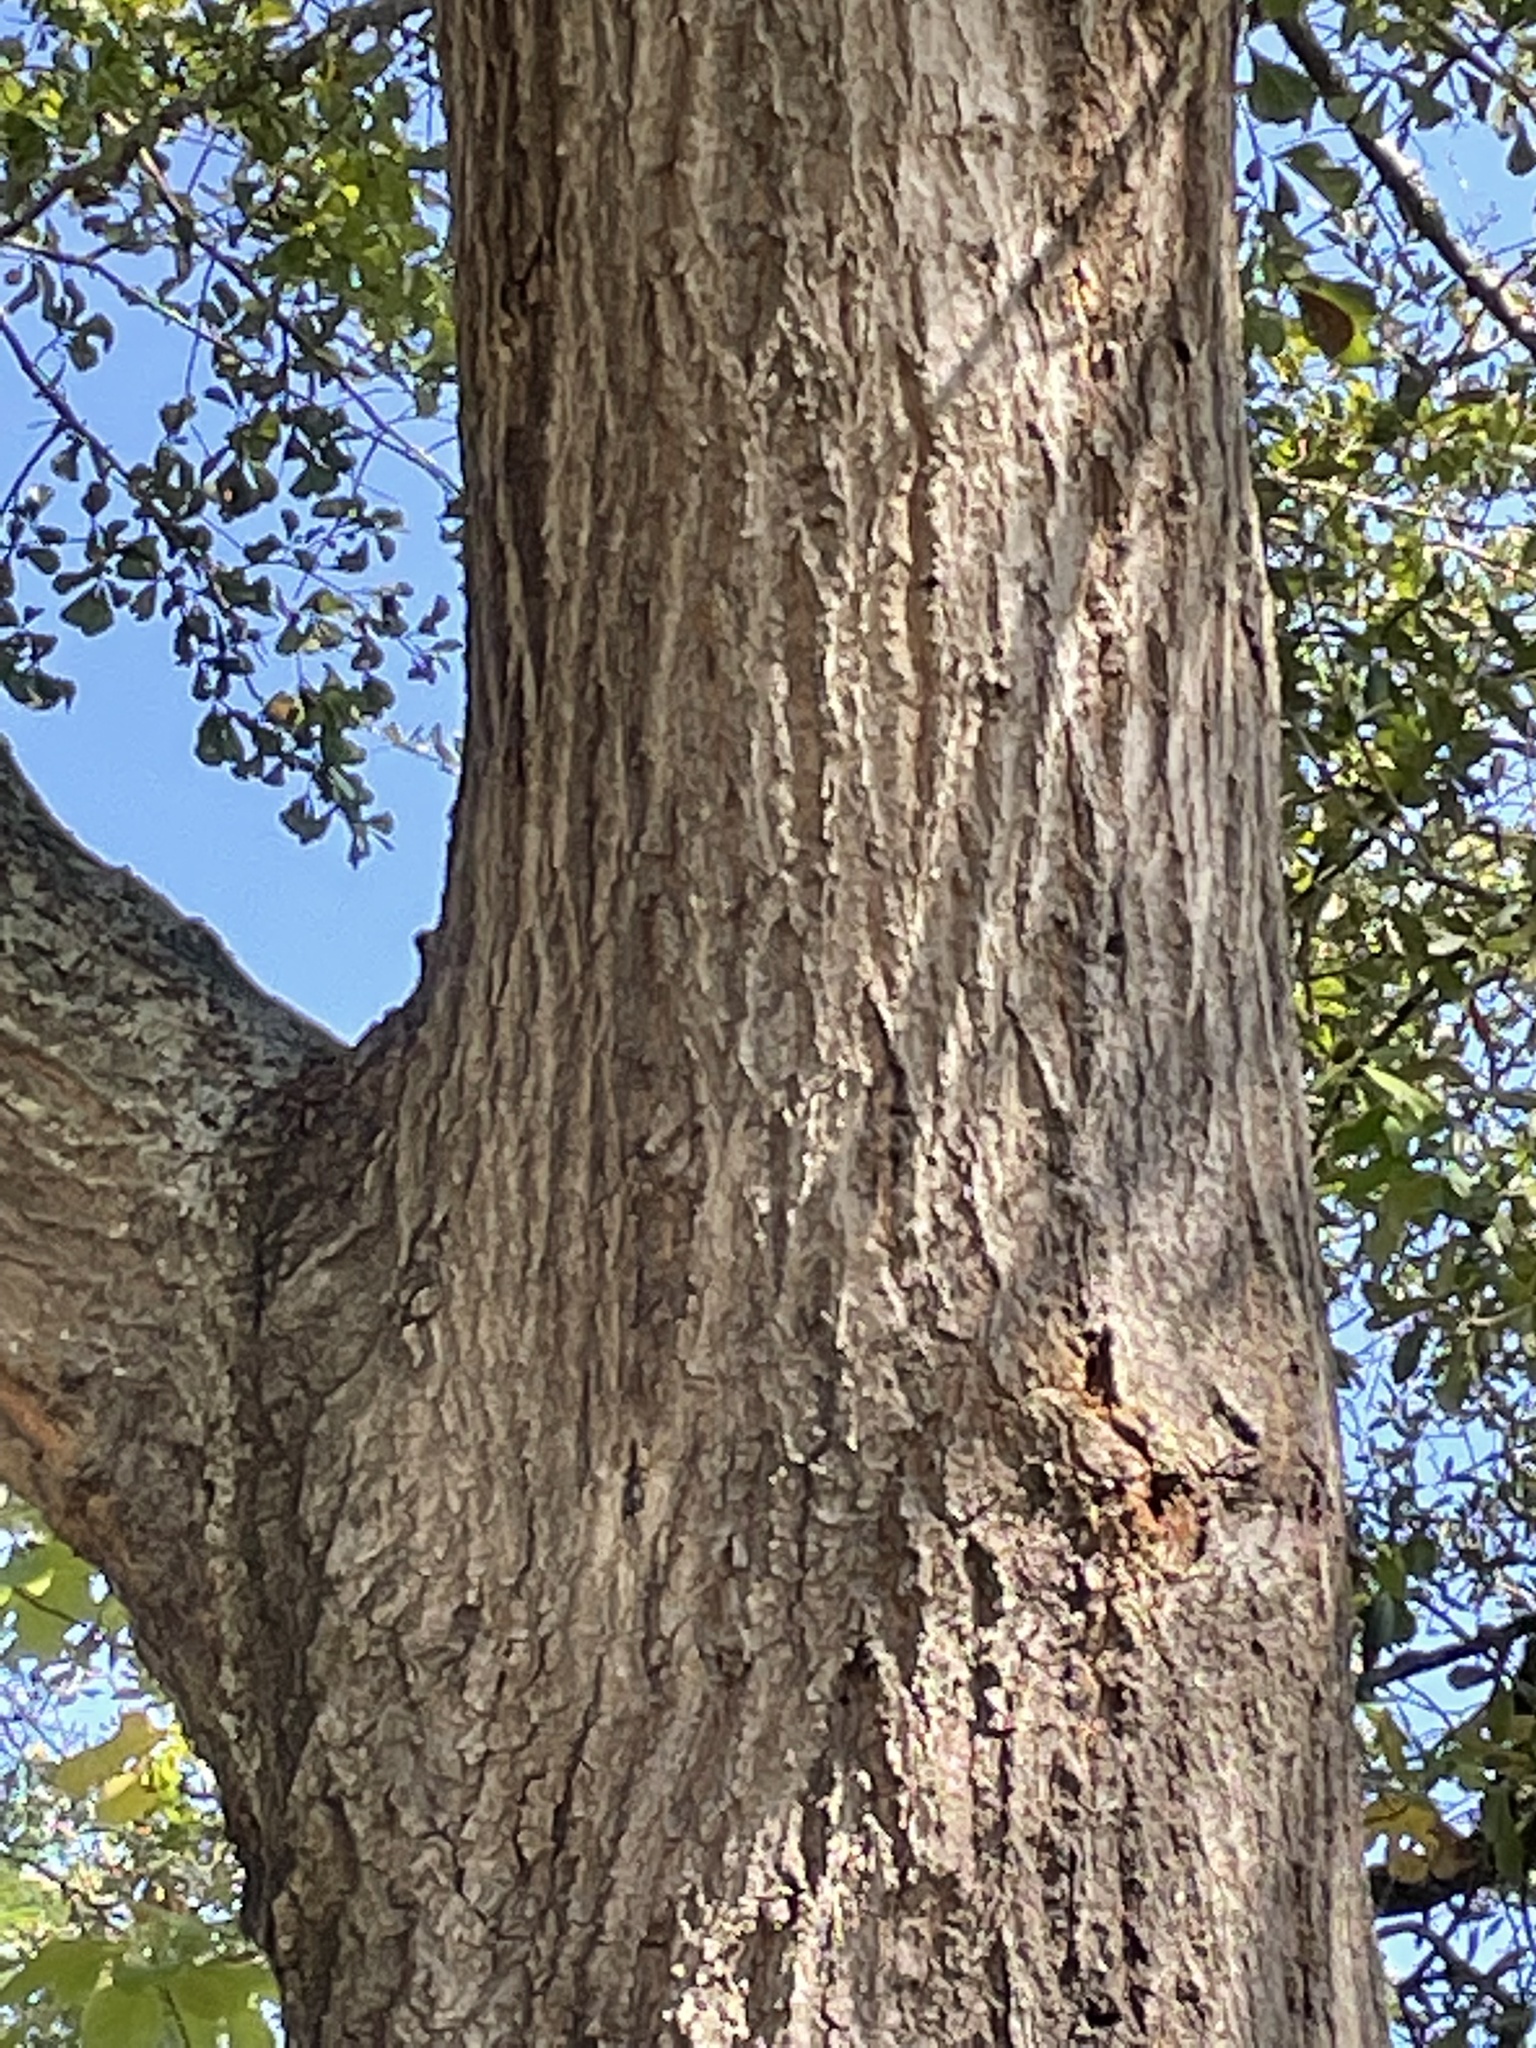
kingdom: Plantae
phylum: Tracheophyta
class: Magnoliopsida
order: Fagales
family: Fagaceae
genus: Quercus
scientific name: Quercus nigra
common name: Water oak
